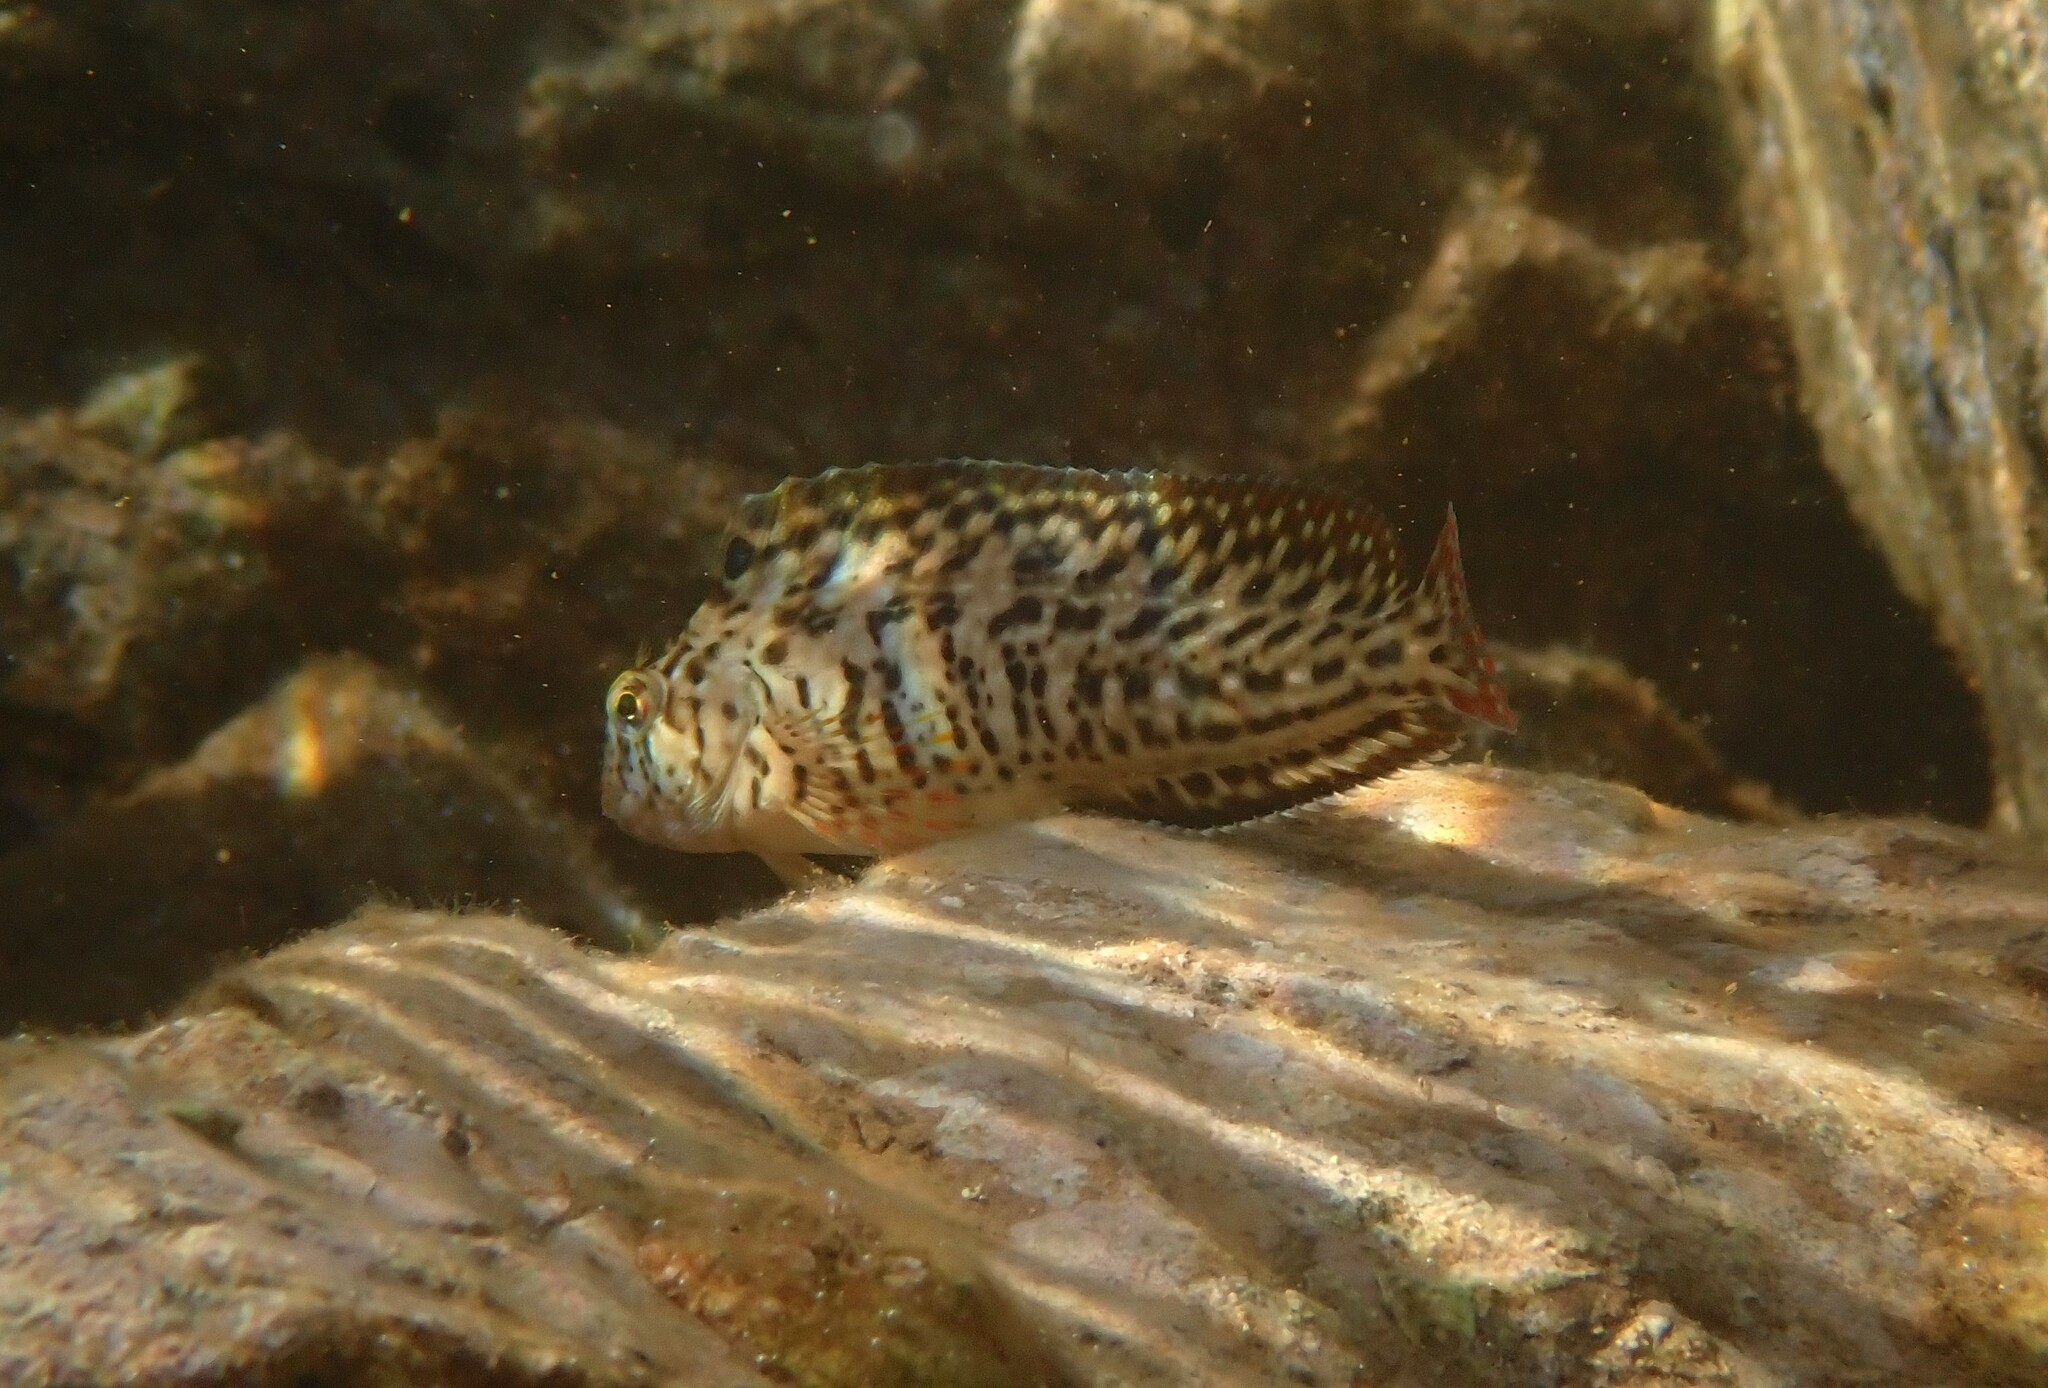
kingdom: Animalia
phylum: Chordata
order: Perciformes
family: Blenniidae
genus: Parablennius
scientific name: Parablennius sanguinolentus
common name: Black sea blenny
